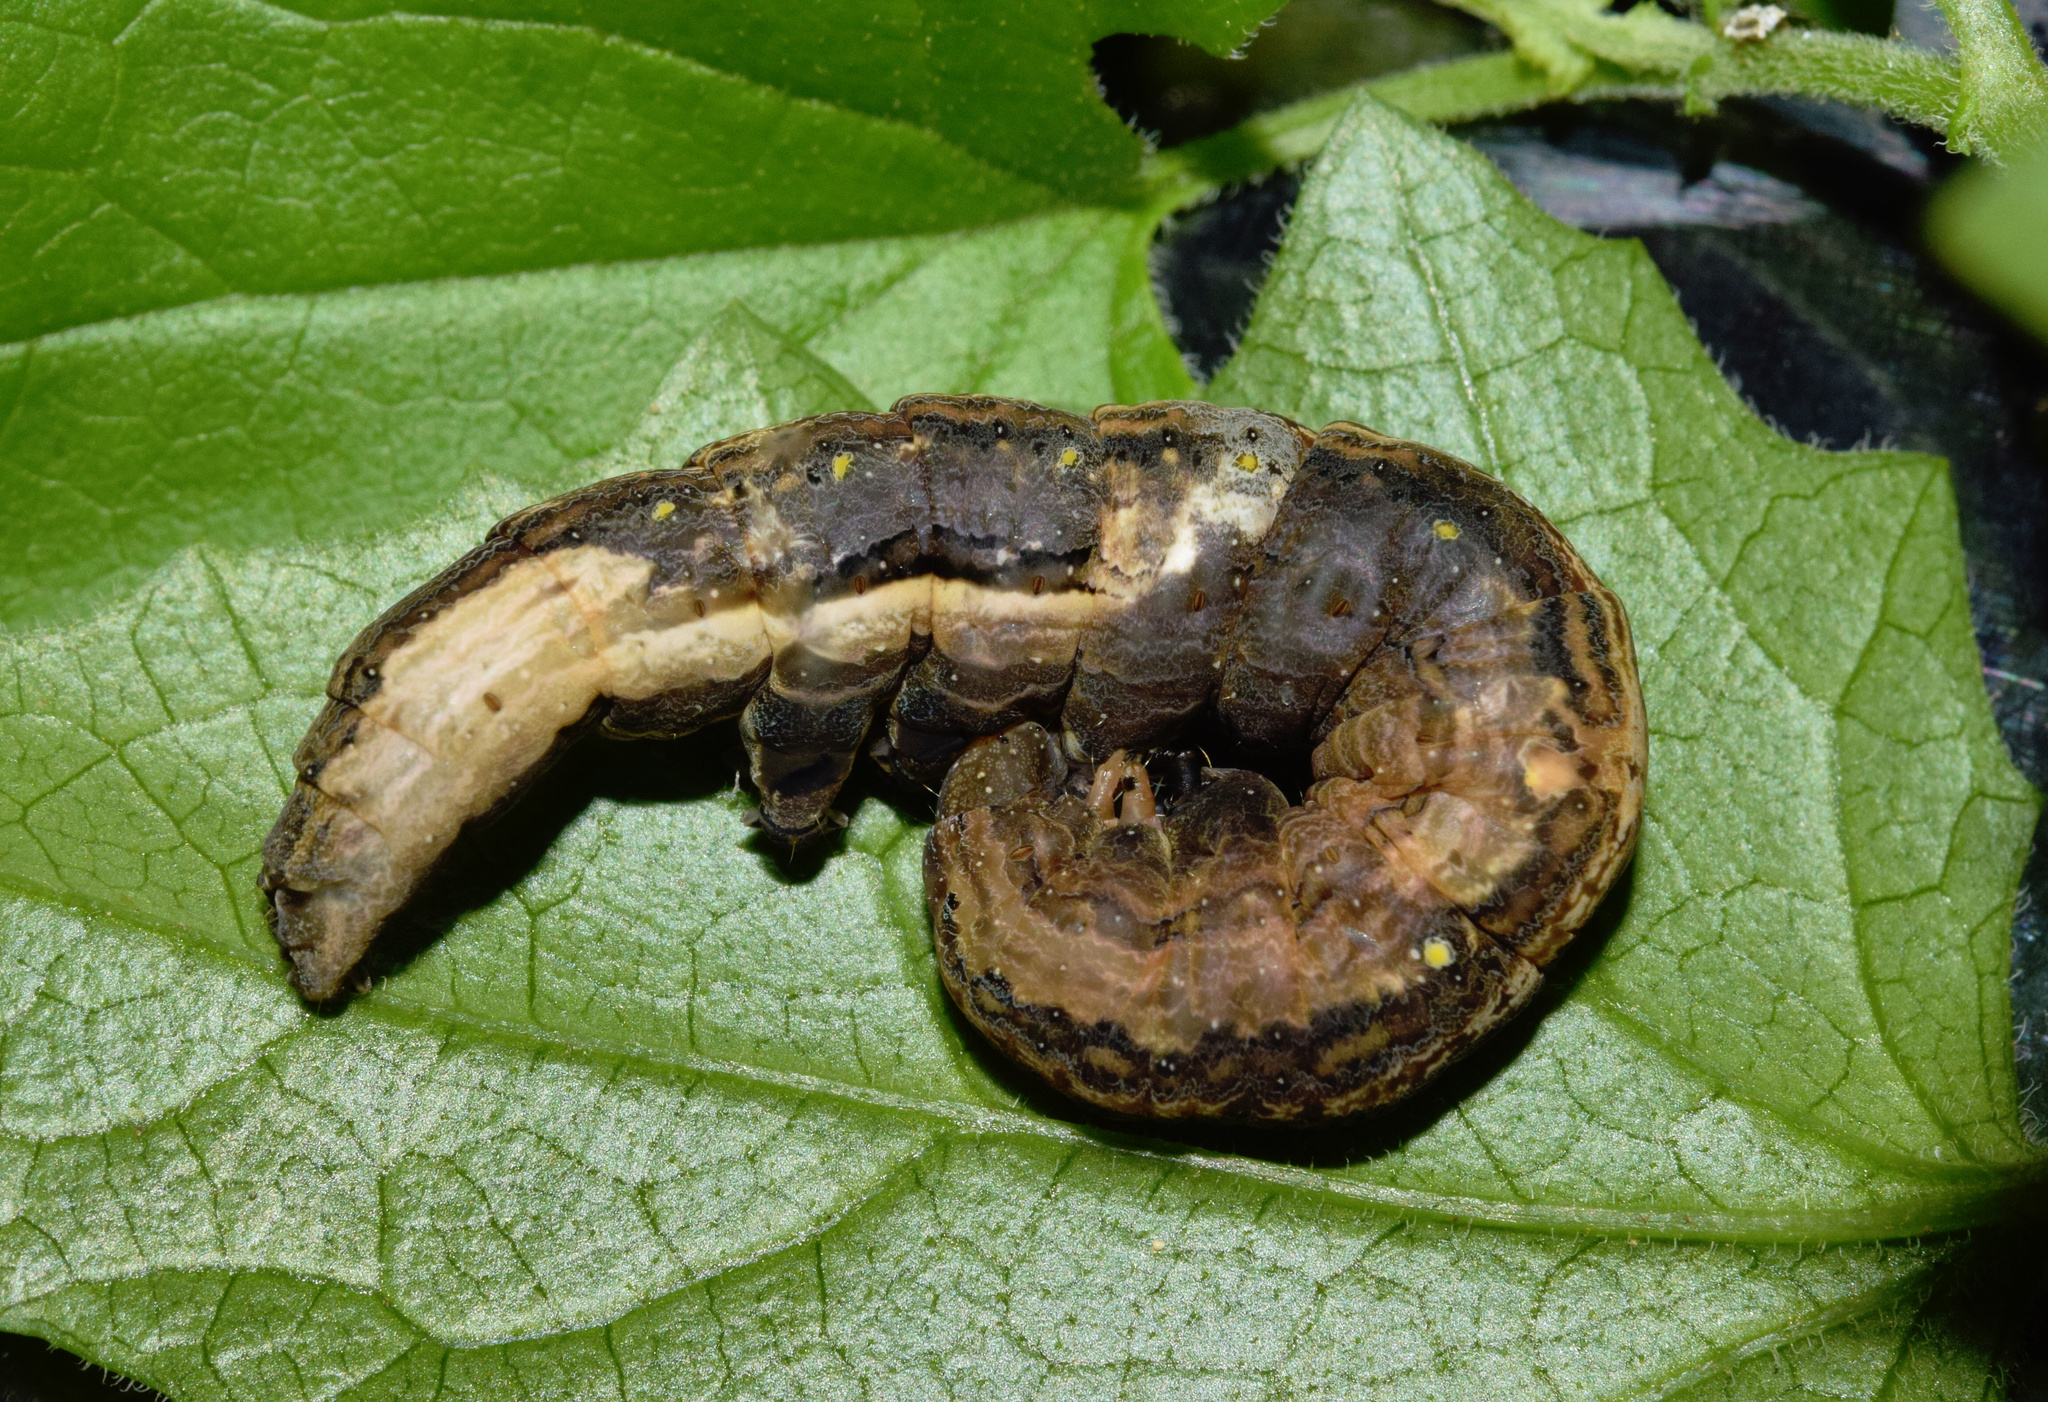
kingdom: Animalia
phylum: Arthropoda
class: Insecta
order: Lepidoptera
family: Erebidae
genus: Oraesia
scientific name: Oraesia provocans
